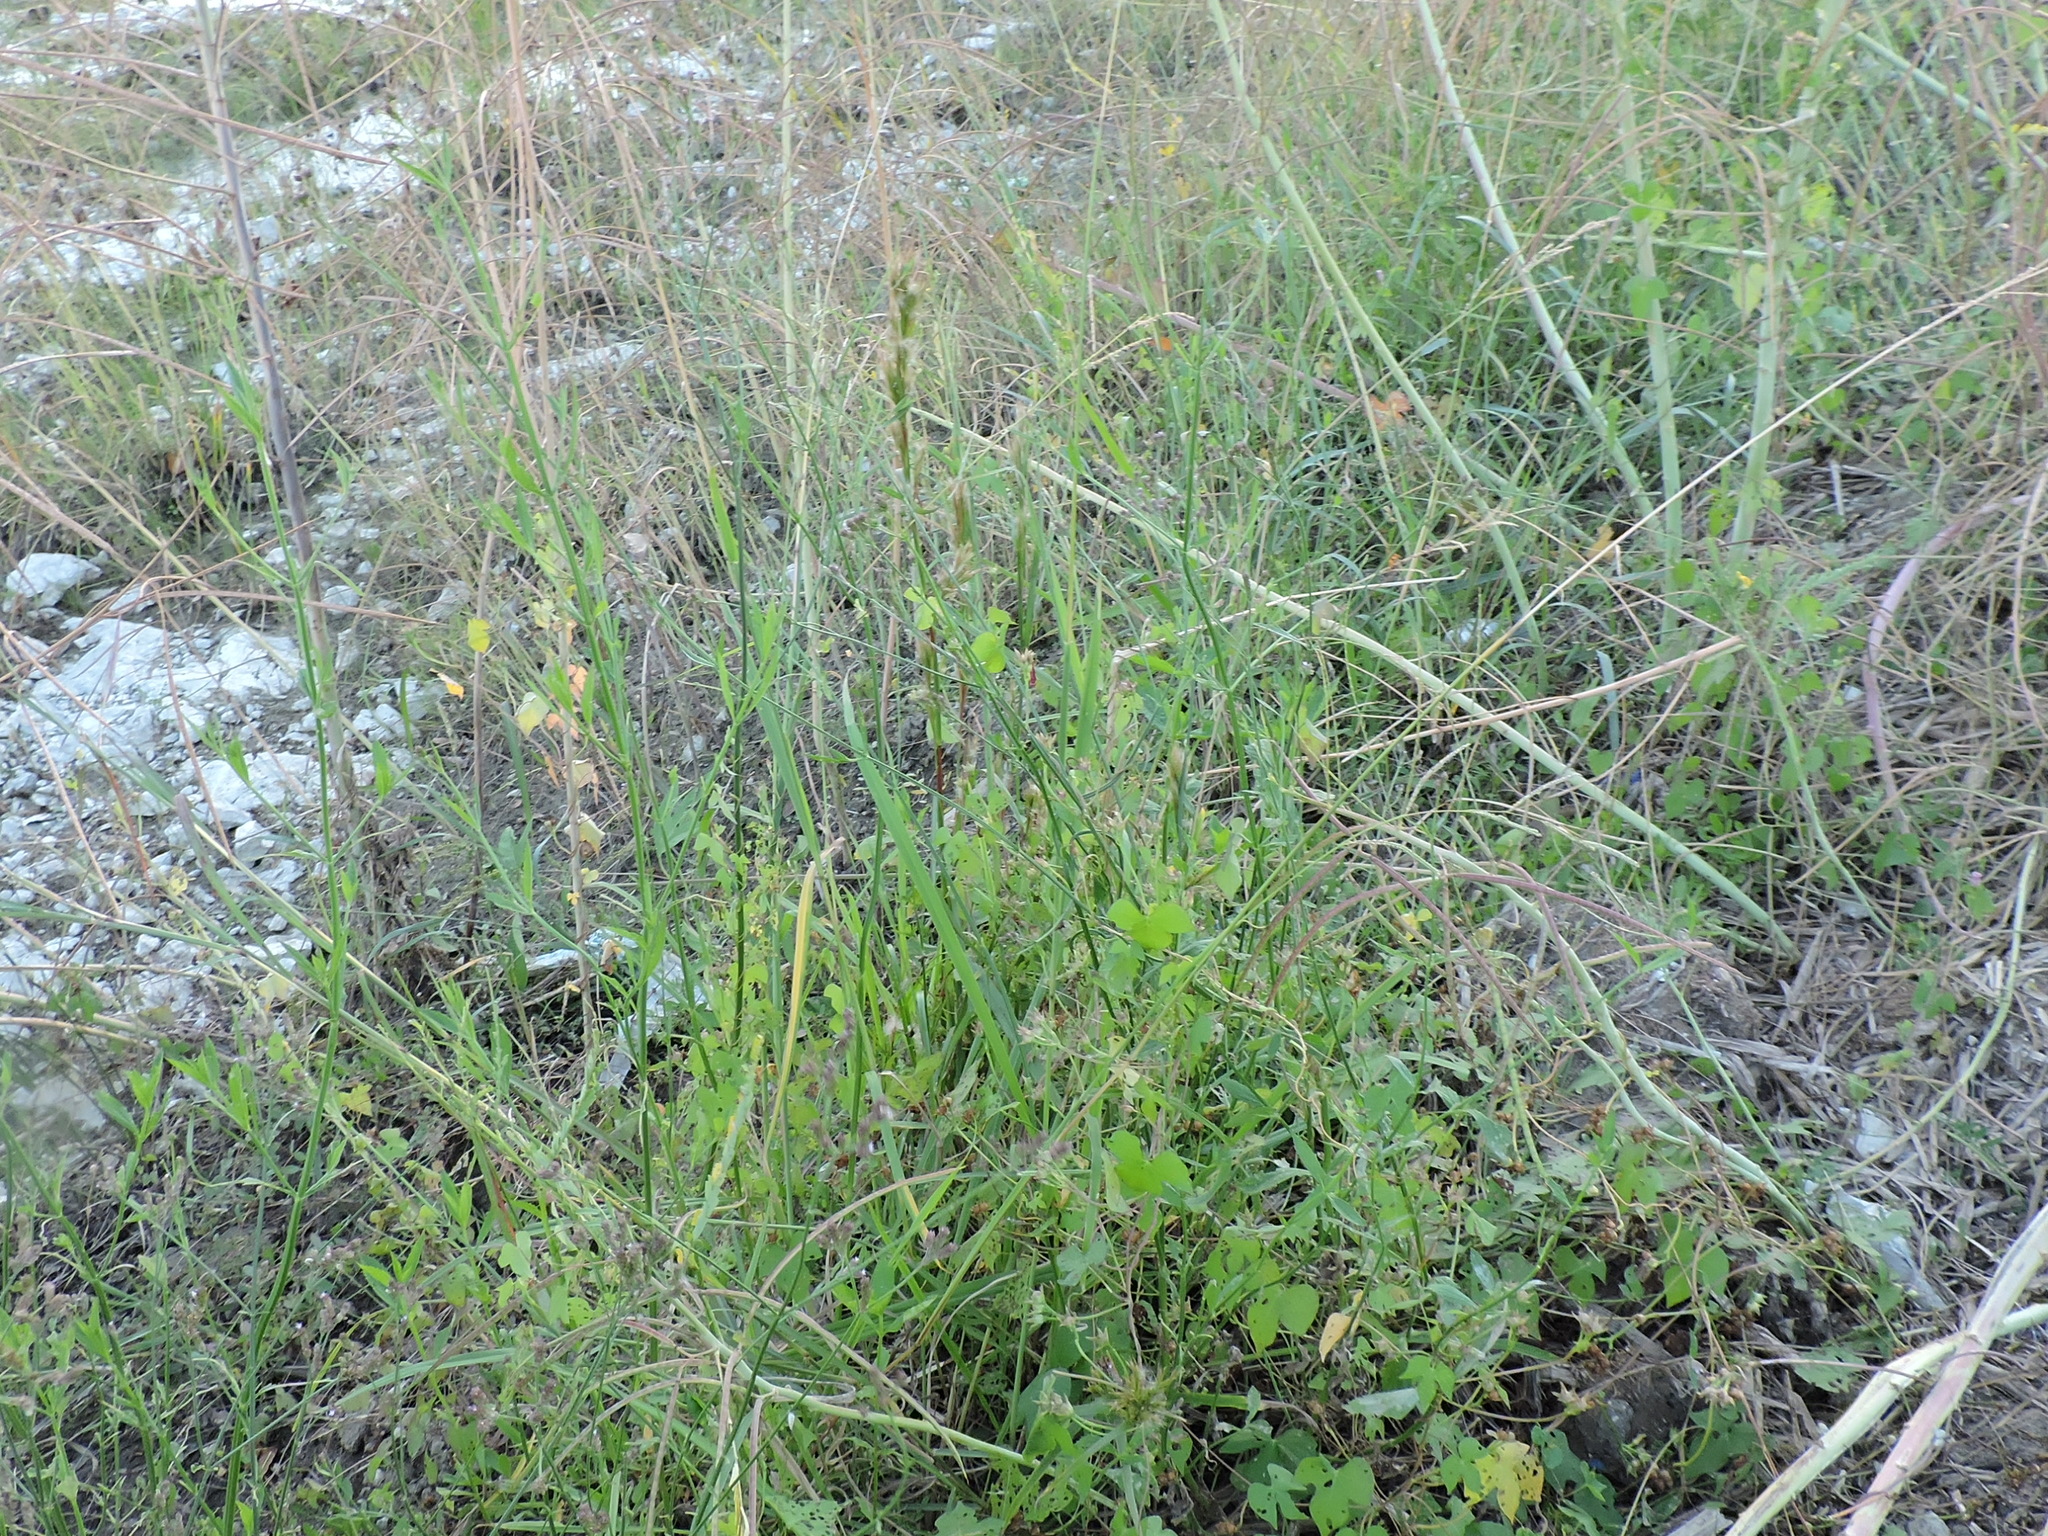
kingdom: Plantae
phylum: Tracheophyta
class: Liliopsida
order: Poales
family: Poaceae
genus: Paspalum
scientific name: Paspalum urvillei
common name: Vasey's grass
